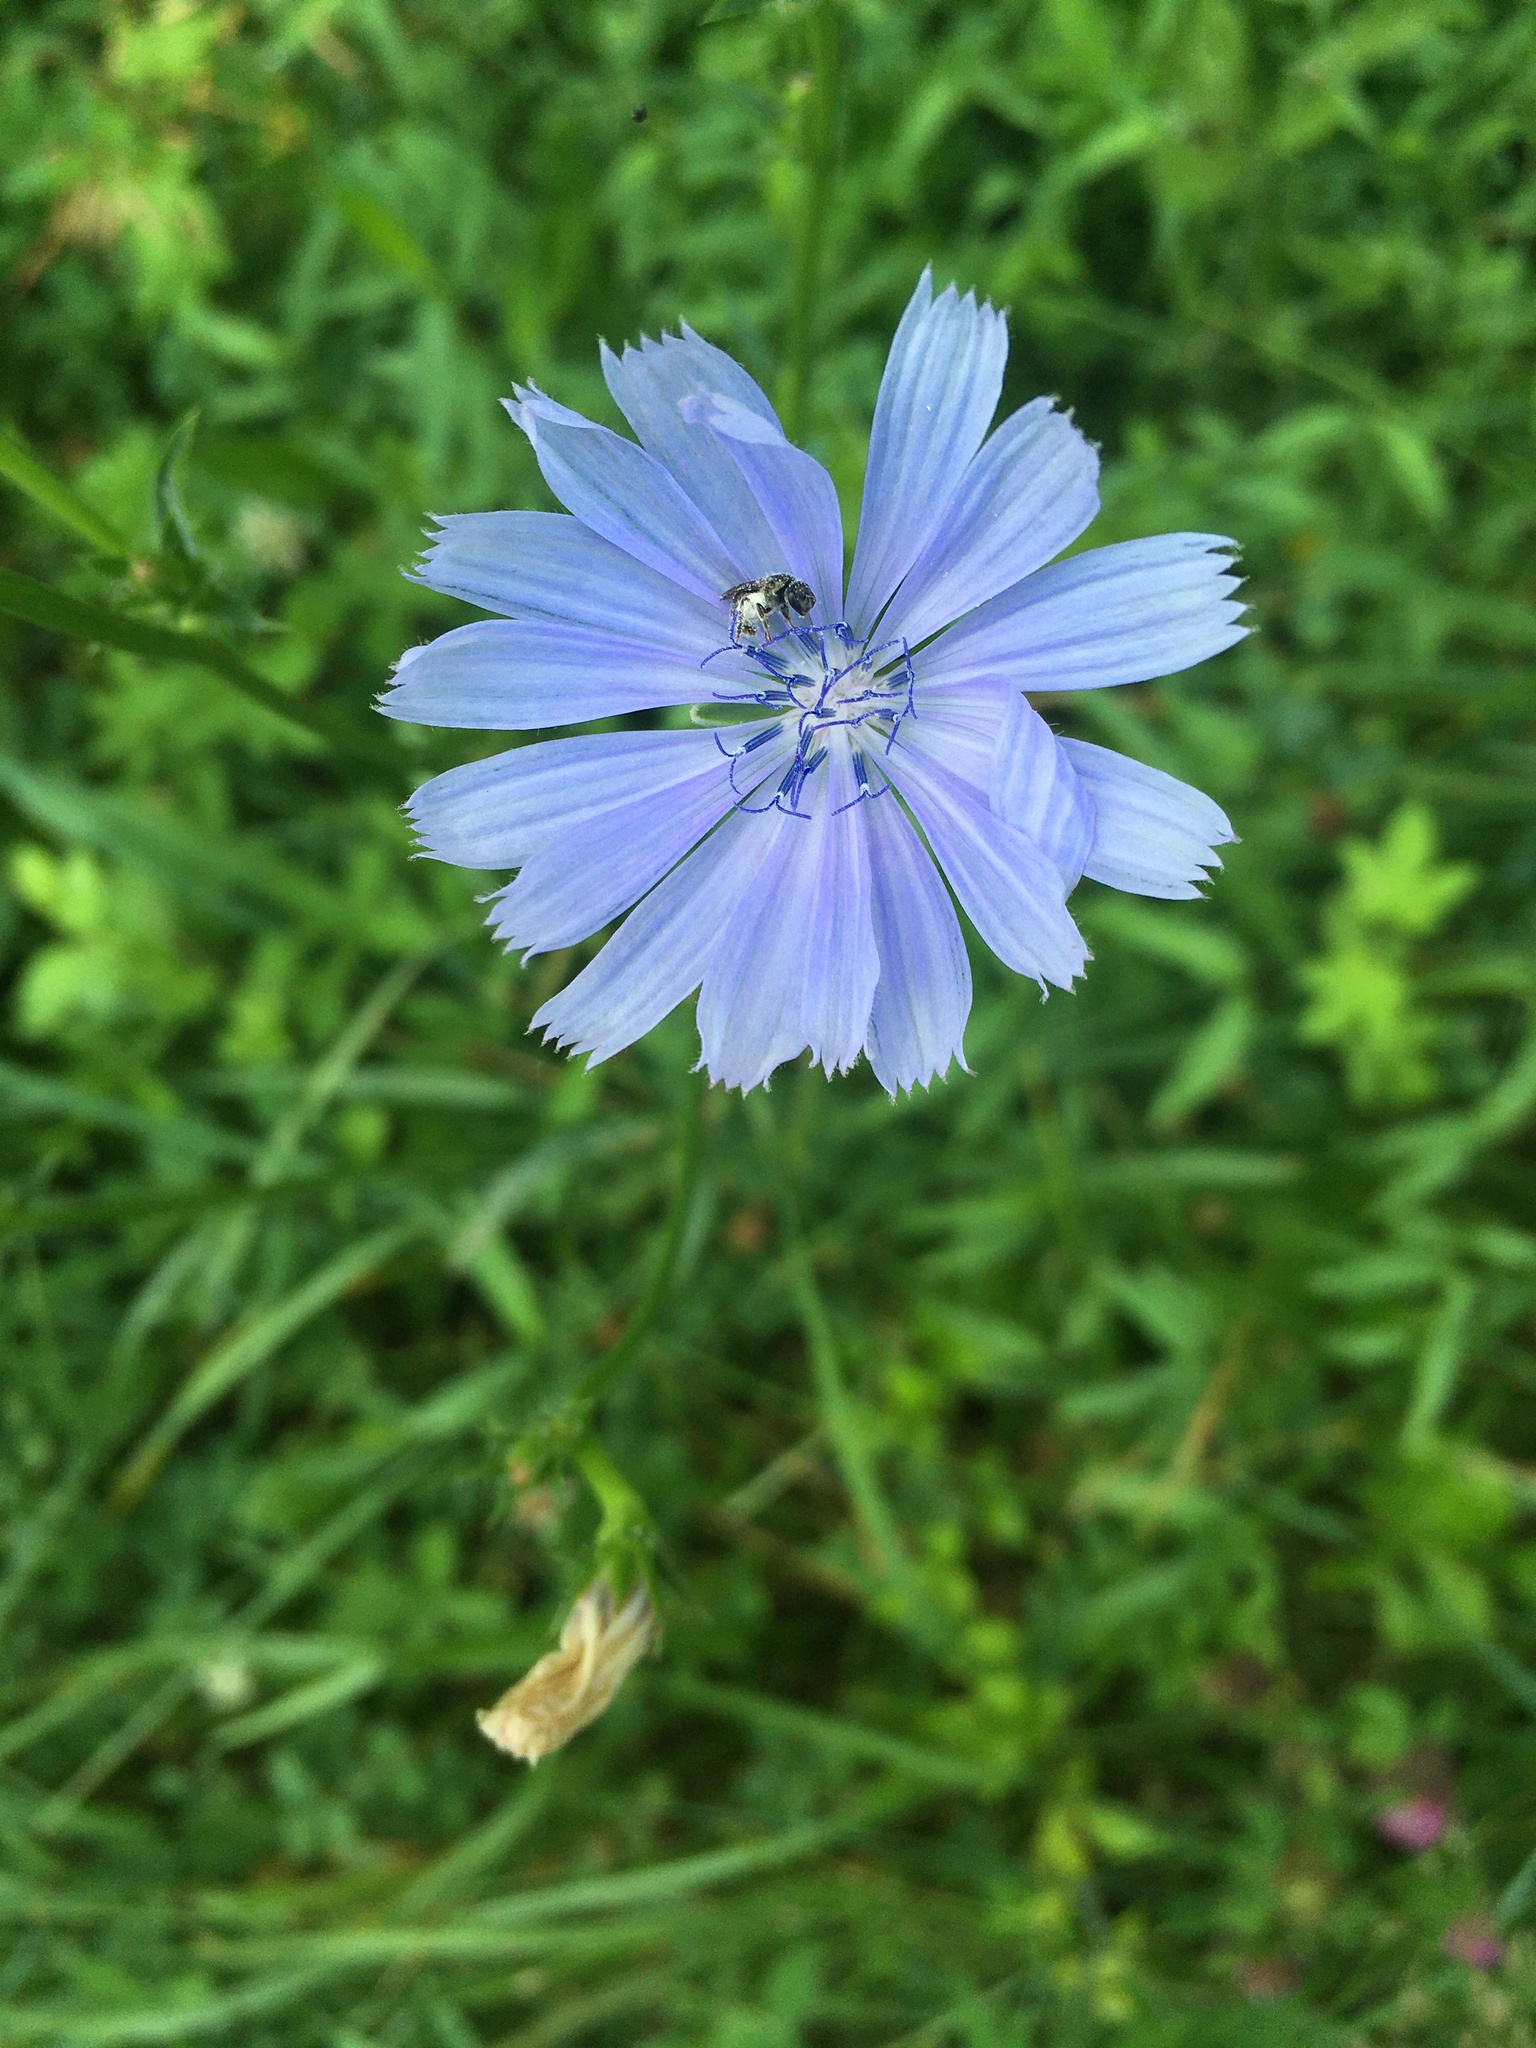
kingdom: Plantae
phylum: Tracheophyta
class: Magnoliopsida
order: Asterales
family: Asteraceae
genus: Cichorium
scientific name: Cichorium intybus
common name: Chicory
